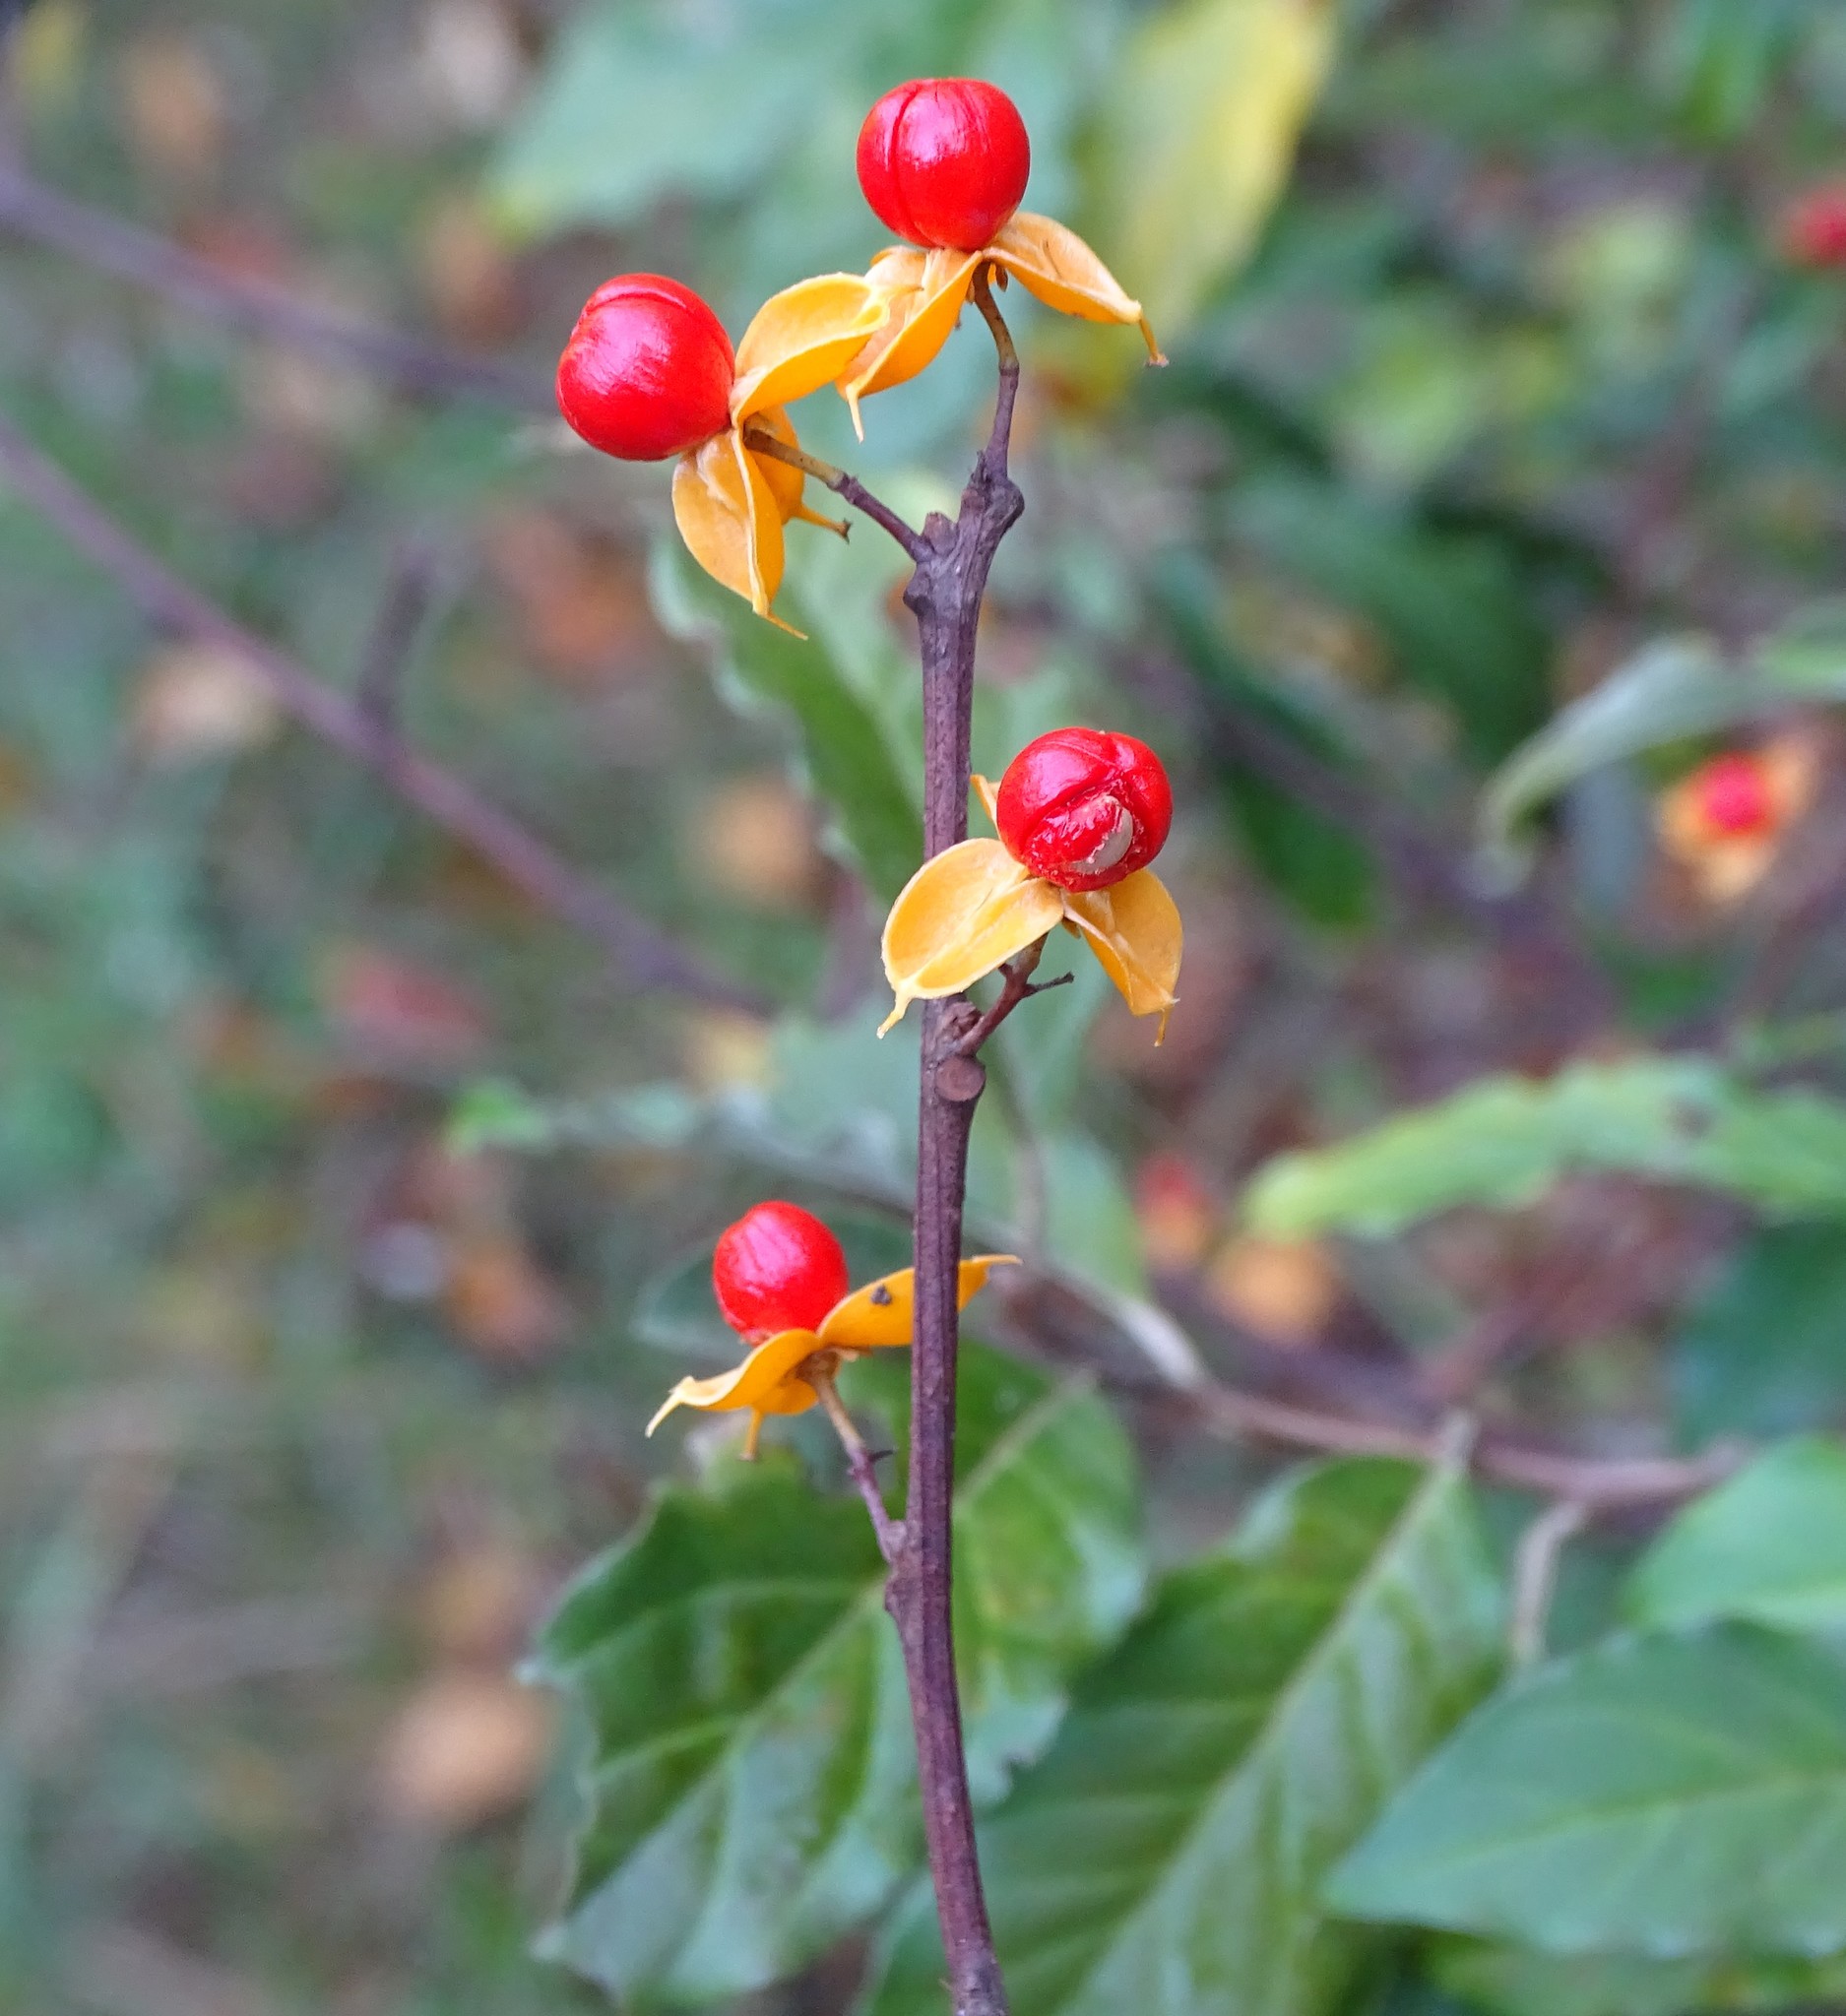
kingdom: Plantae
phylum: Tracheophyta
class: Magnoliopsida
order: Celastrales
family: Celastraceae
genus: Celastrus
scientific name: Celastrus orbiculatus
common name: Oriental bittersweet
